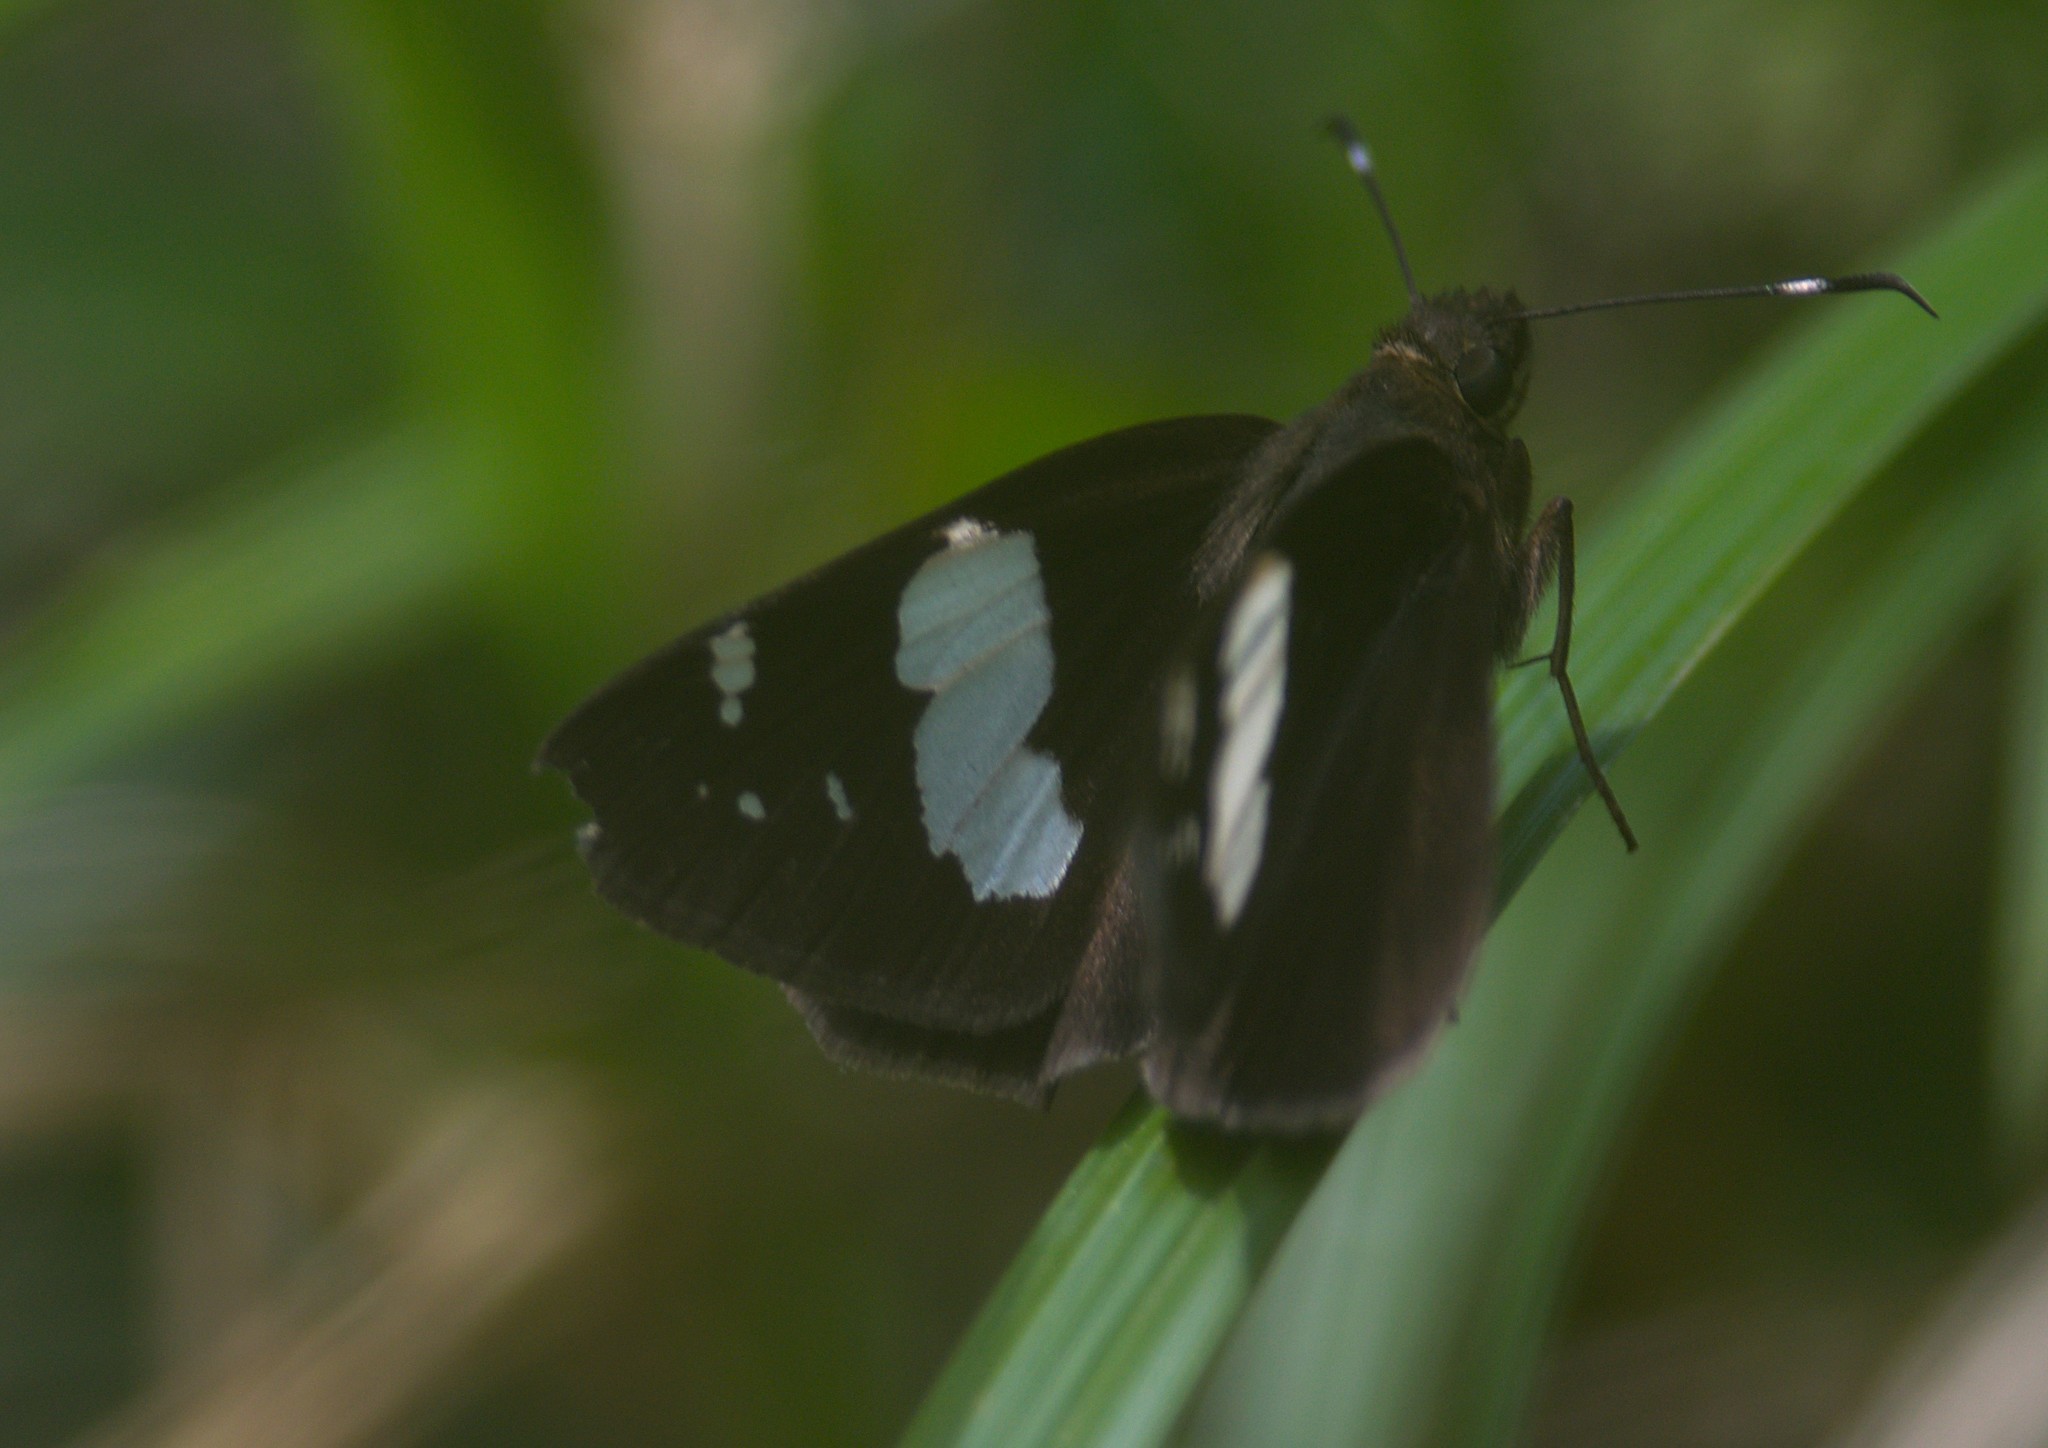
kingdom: Animalia
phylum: Arthropoda
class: Insecta
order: Lepidoptera
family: Hesperiidae
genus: Notocrypta
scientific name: Notocrypta curvifascia
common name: Restricted demon
